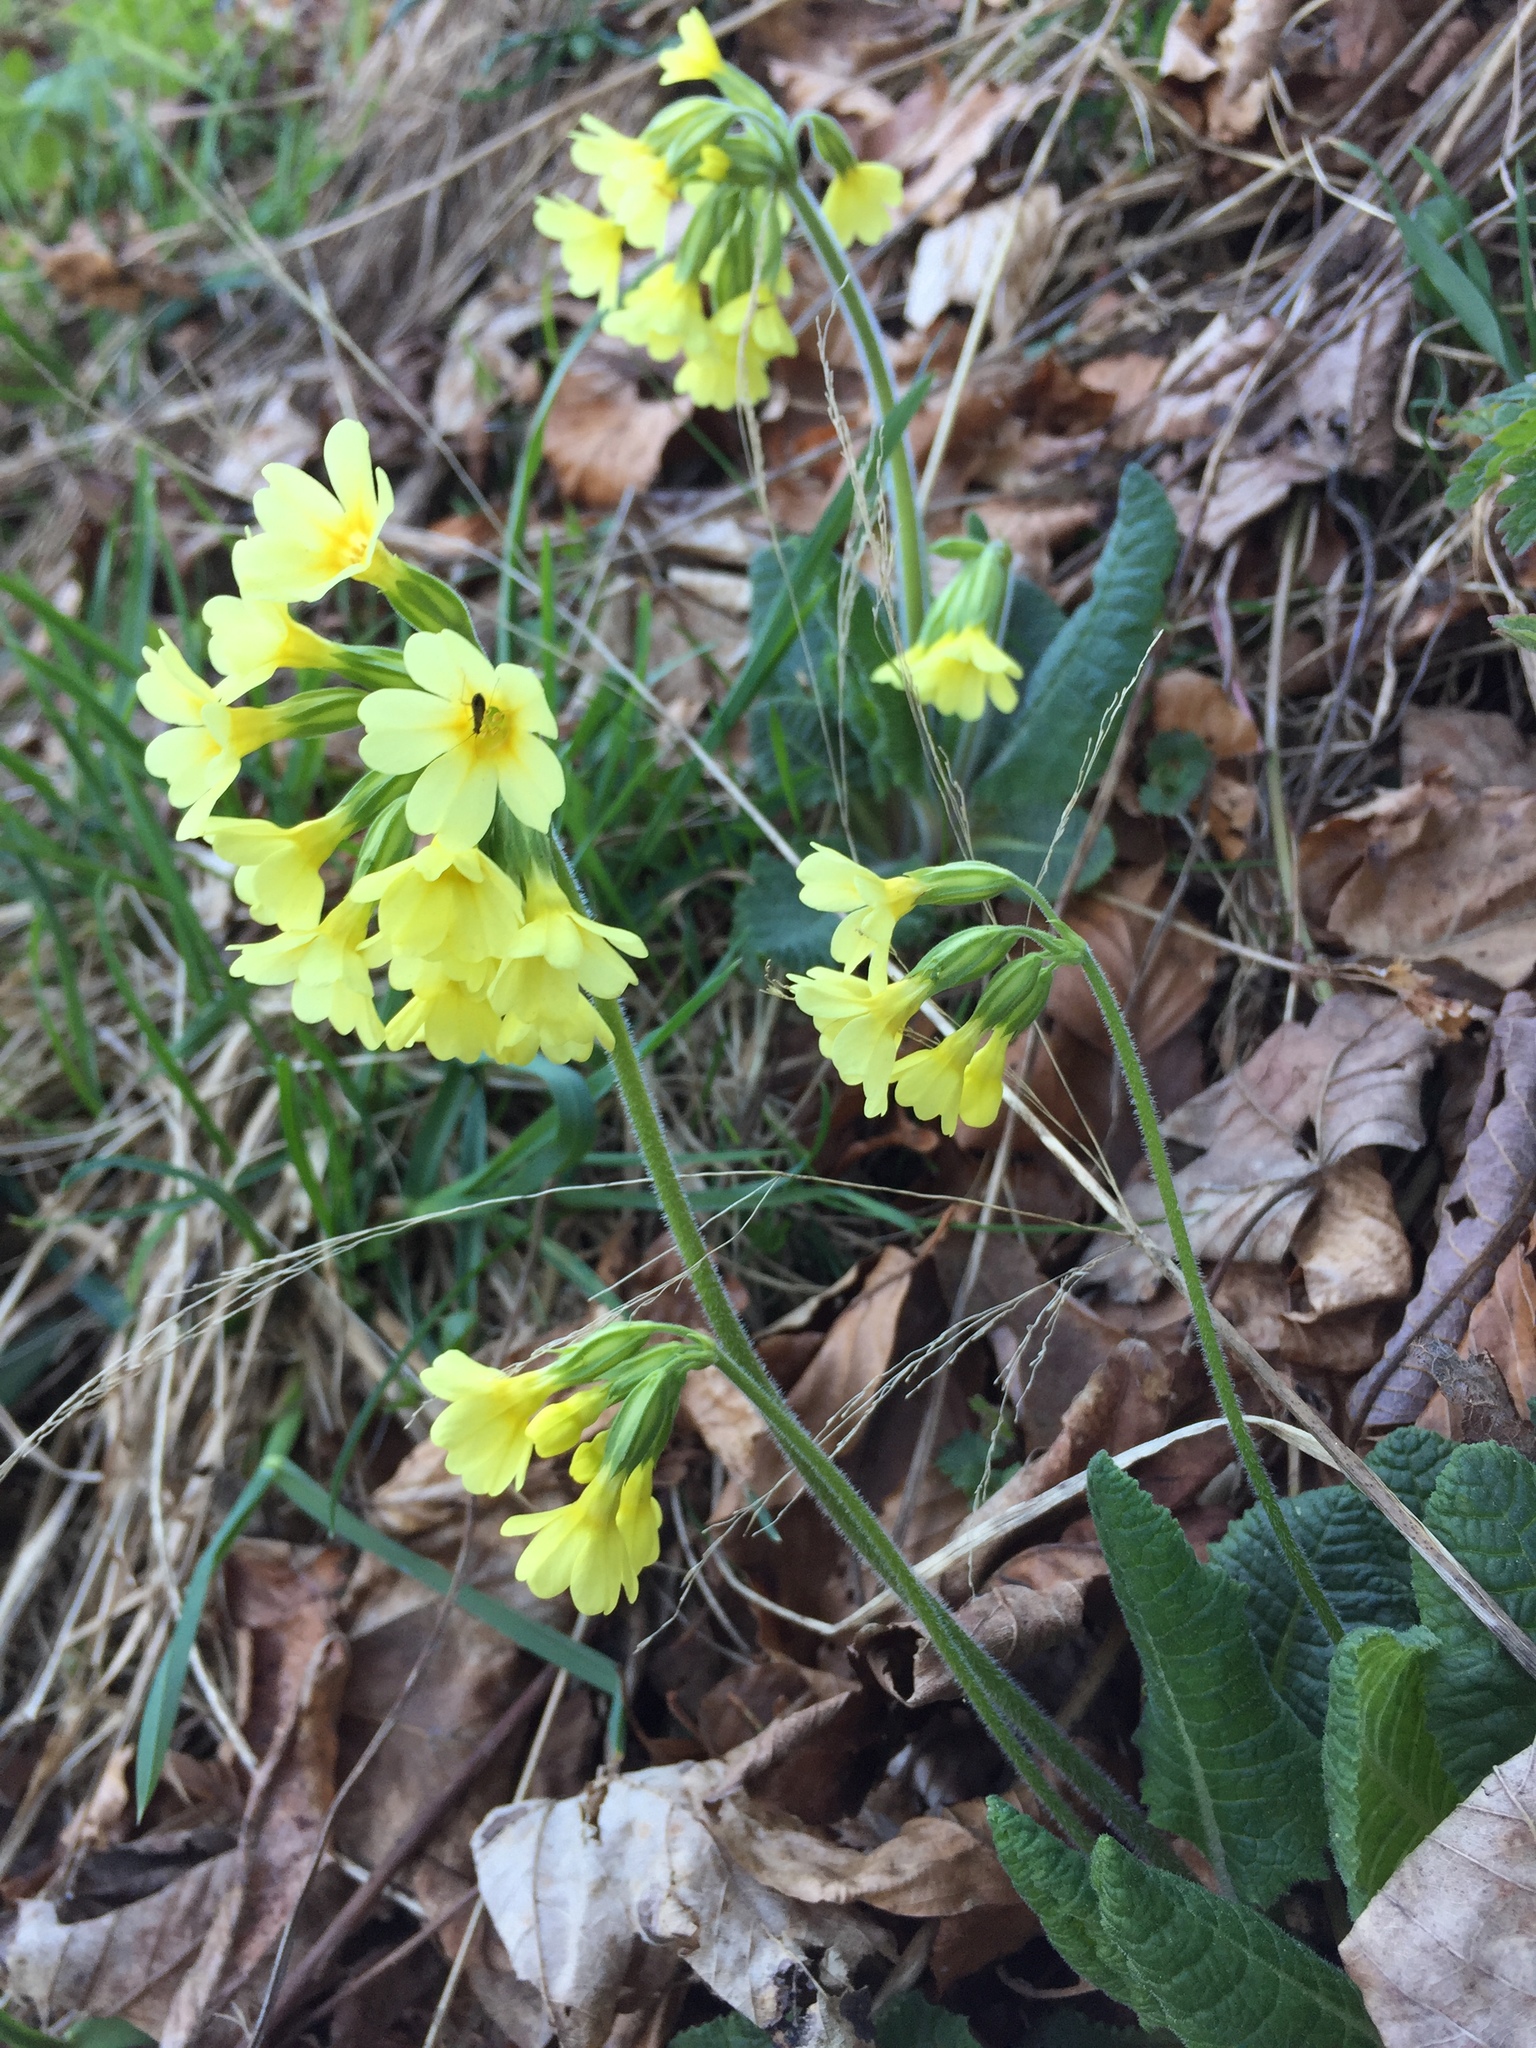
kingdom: Plantae
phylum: Tracheophyta
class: Magnoliopsida
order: Ericales
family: Primulaceae
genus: Primula
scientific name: Primula elatior
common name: Oxlip
